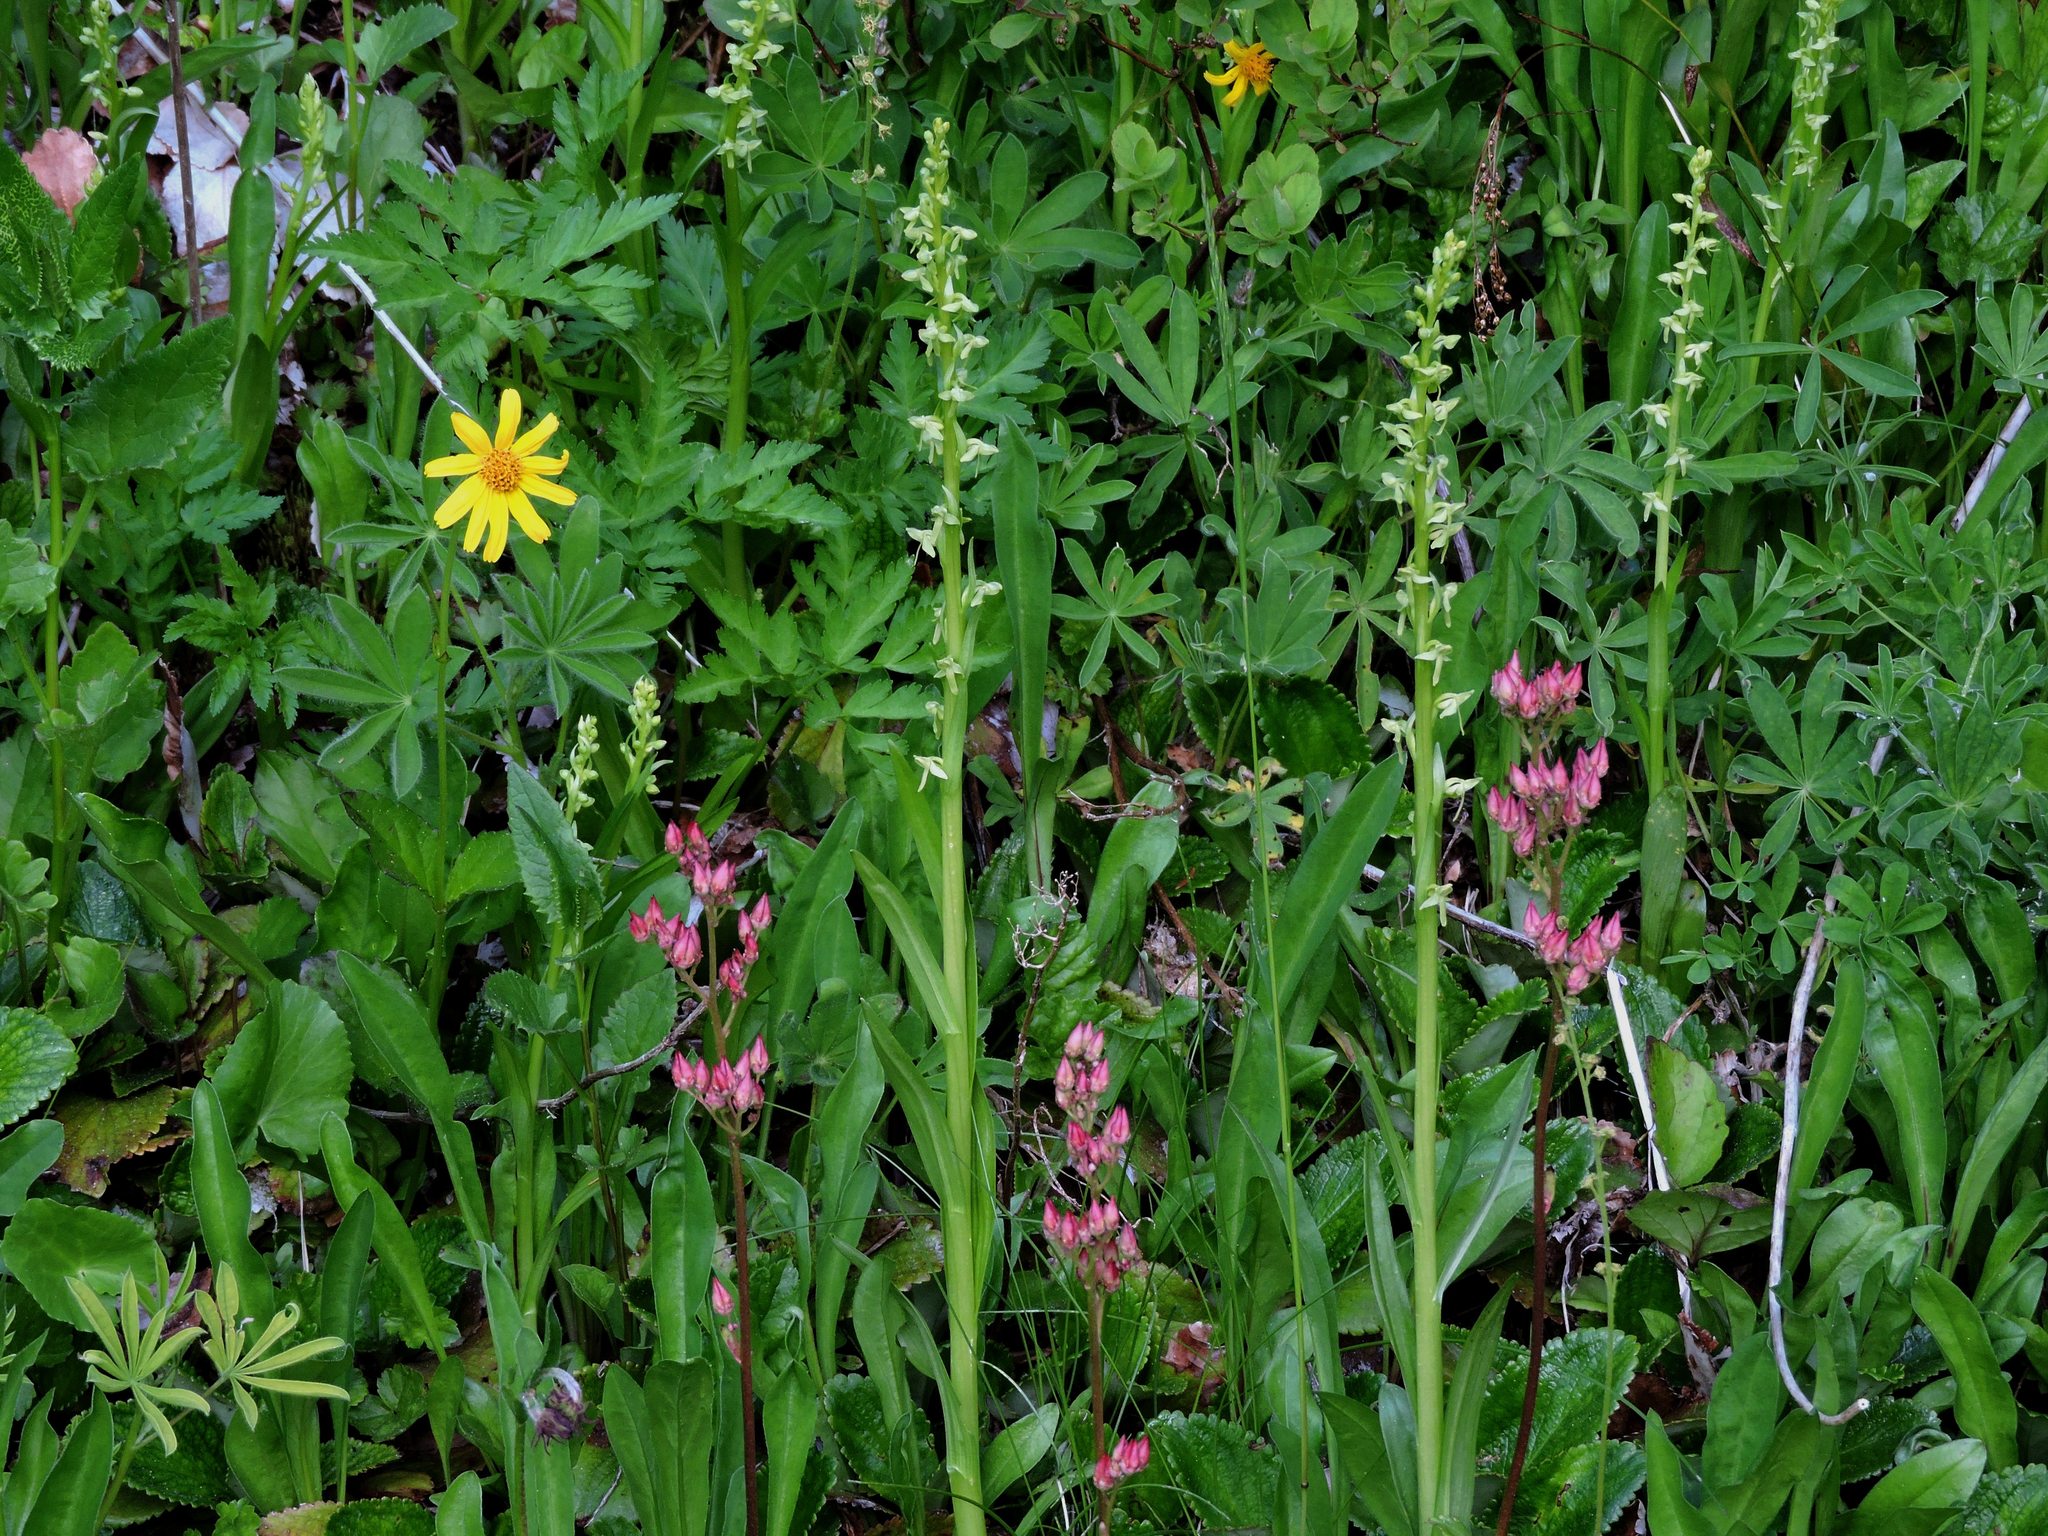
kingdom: Plantae
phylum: Tracheophyta
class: Liliopsida
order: Asparagales
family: Orchidaceae
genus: Platanthera
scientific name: Platanthera stricta
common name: Slender bog orchid
